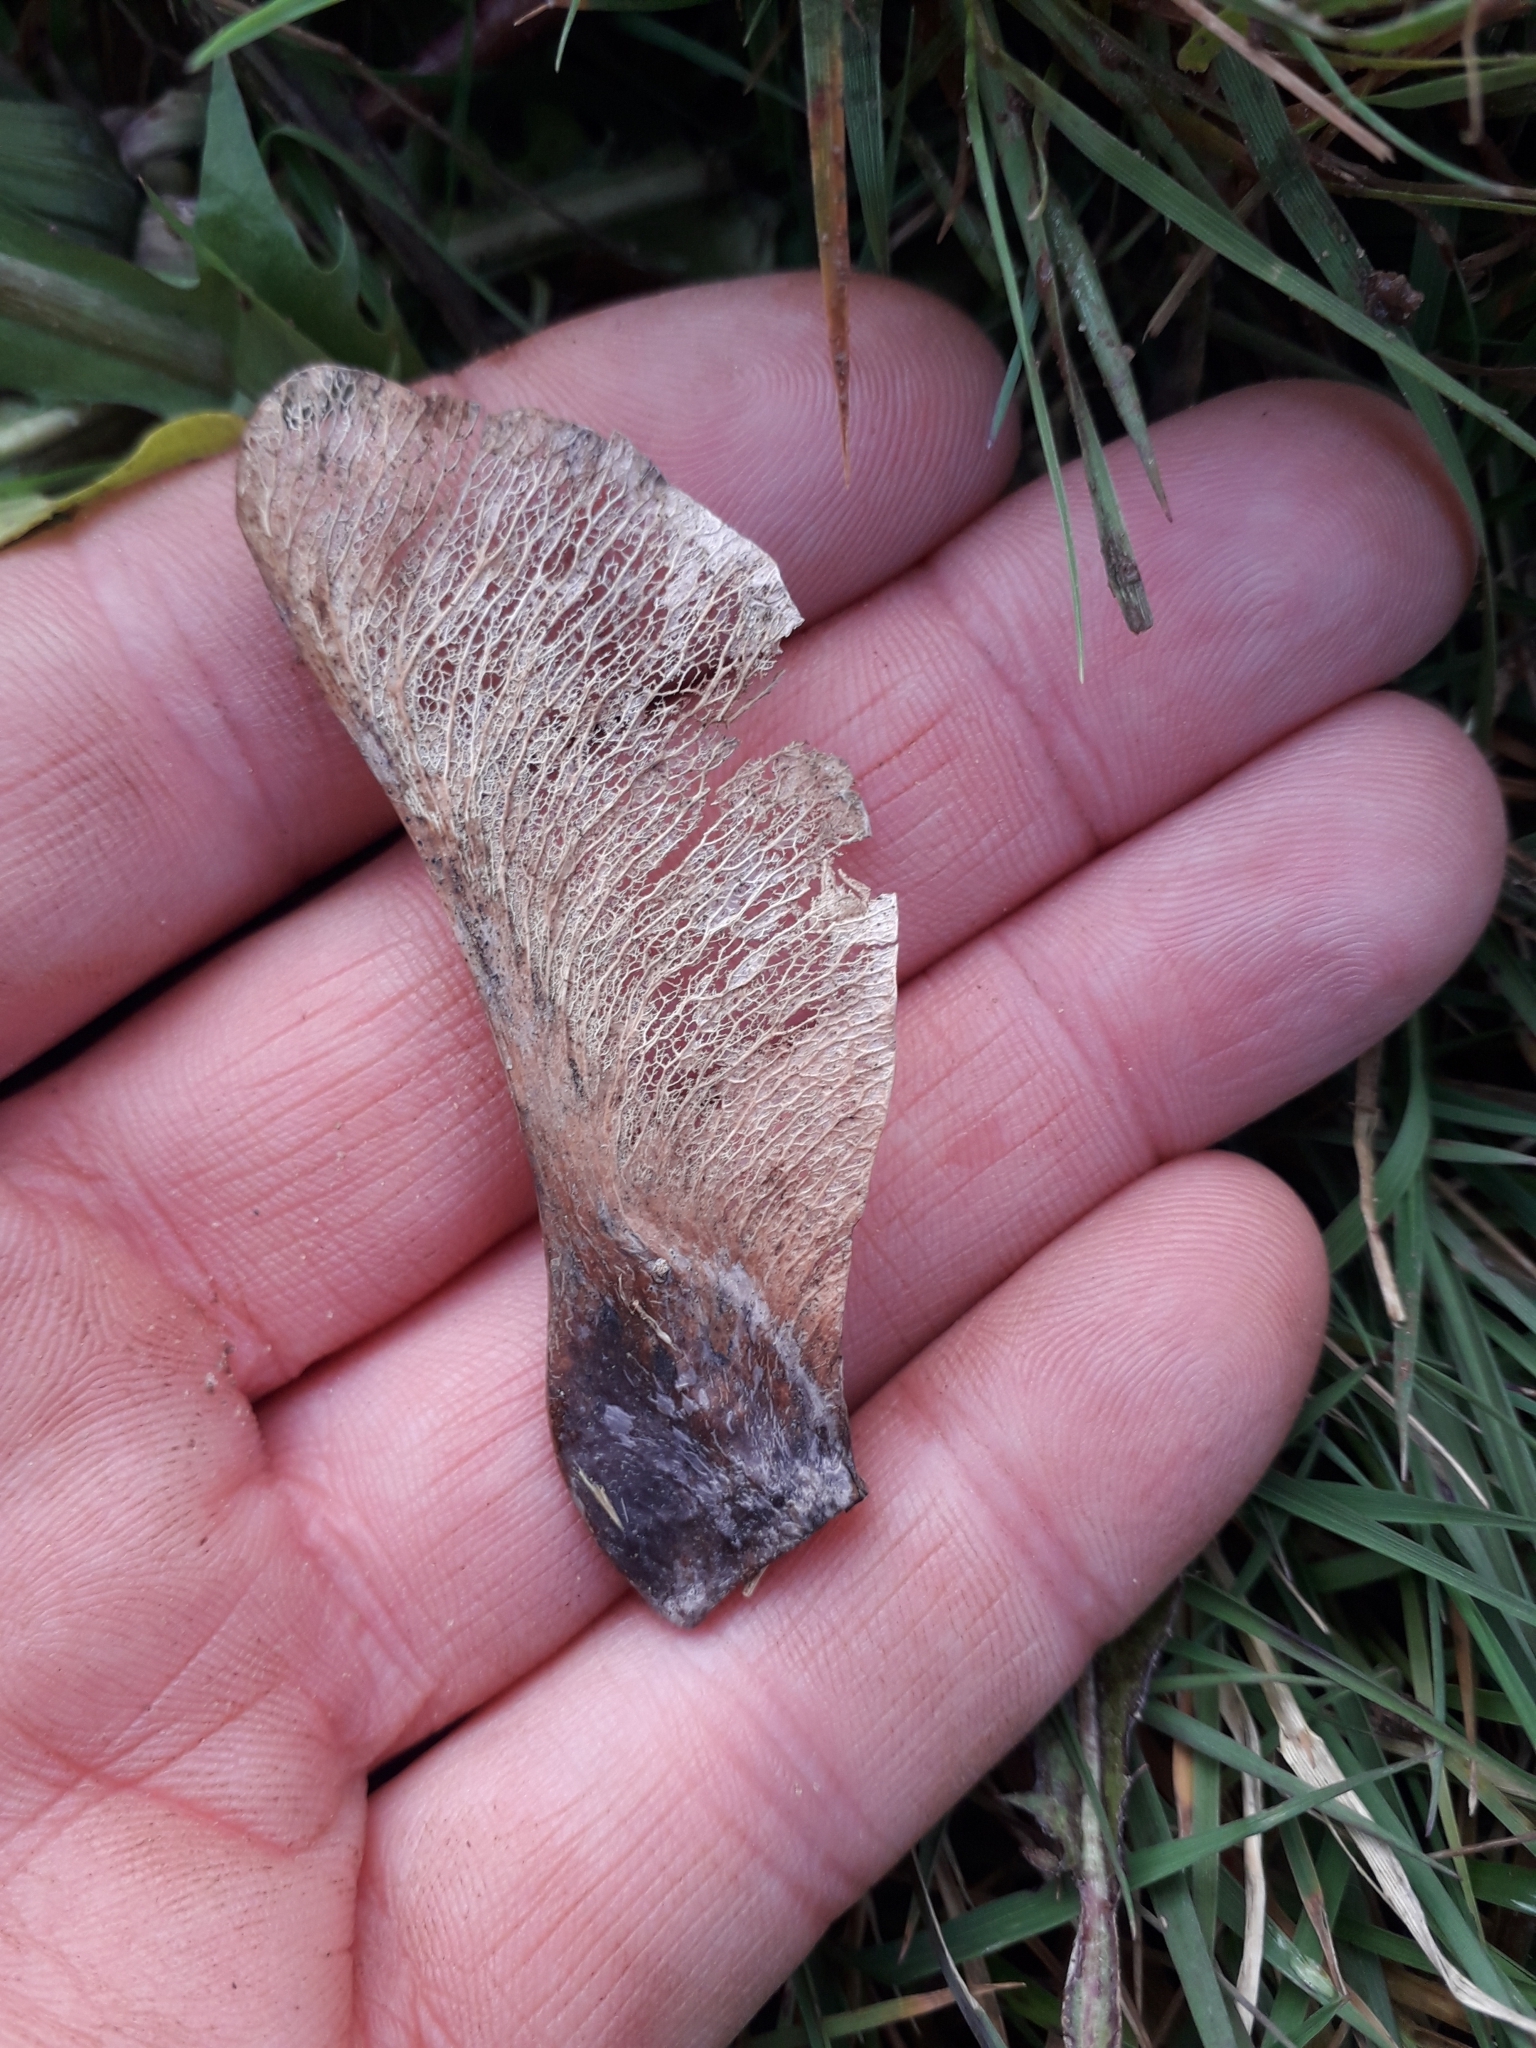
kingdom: Plantae
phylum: Tracheophyta
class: Magnoliopsida
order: Sapindales
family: Sapindaceae
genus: Acer
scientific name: Acer pseudoplatanus
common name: Sycamore
